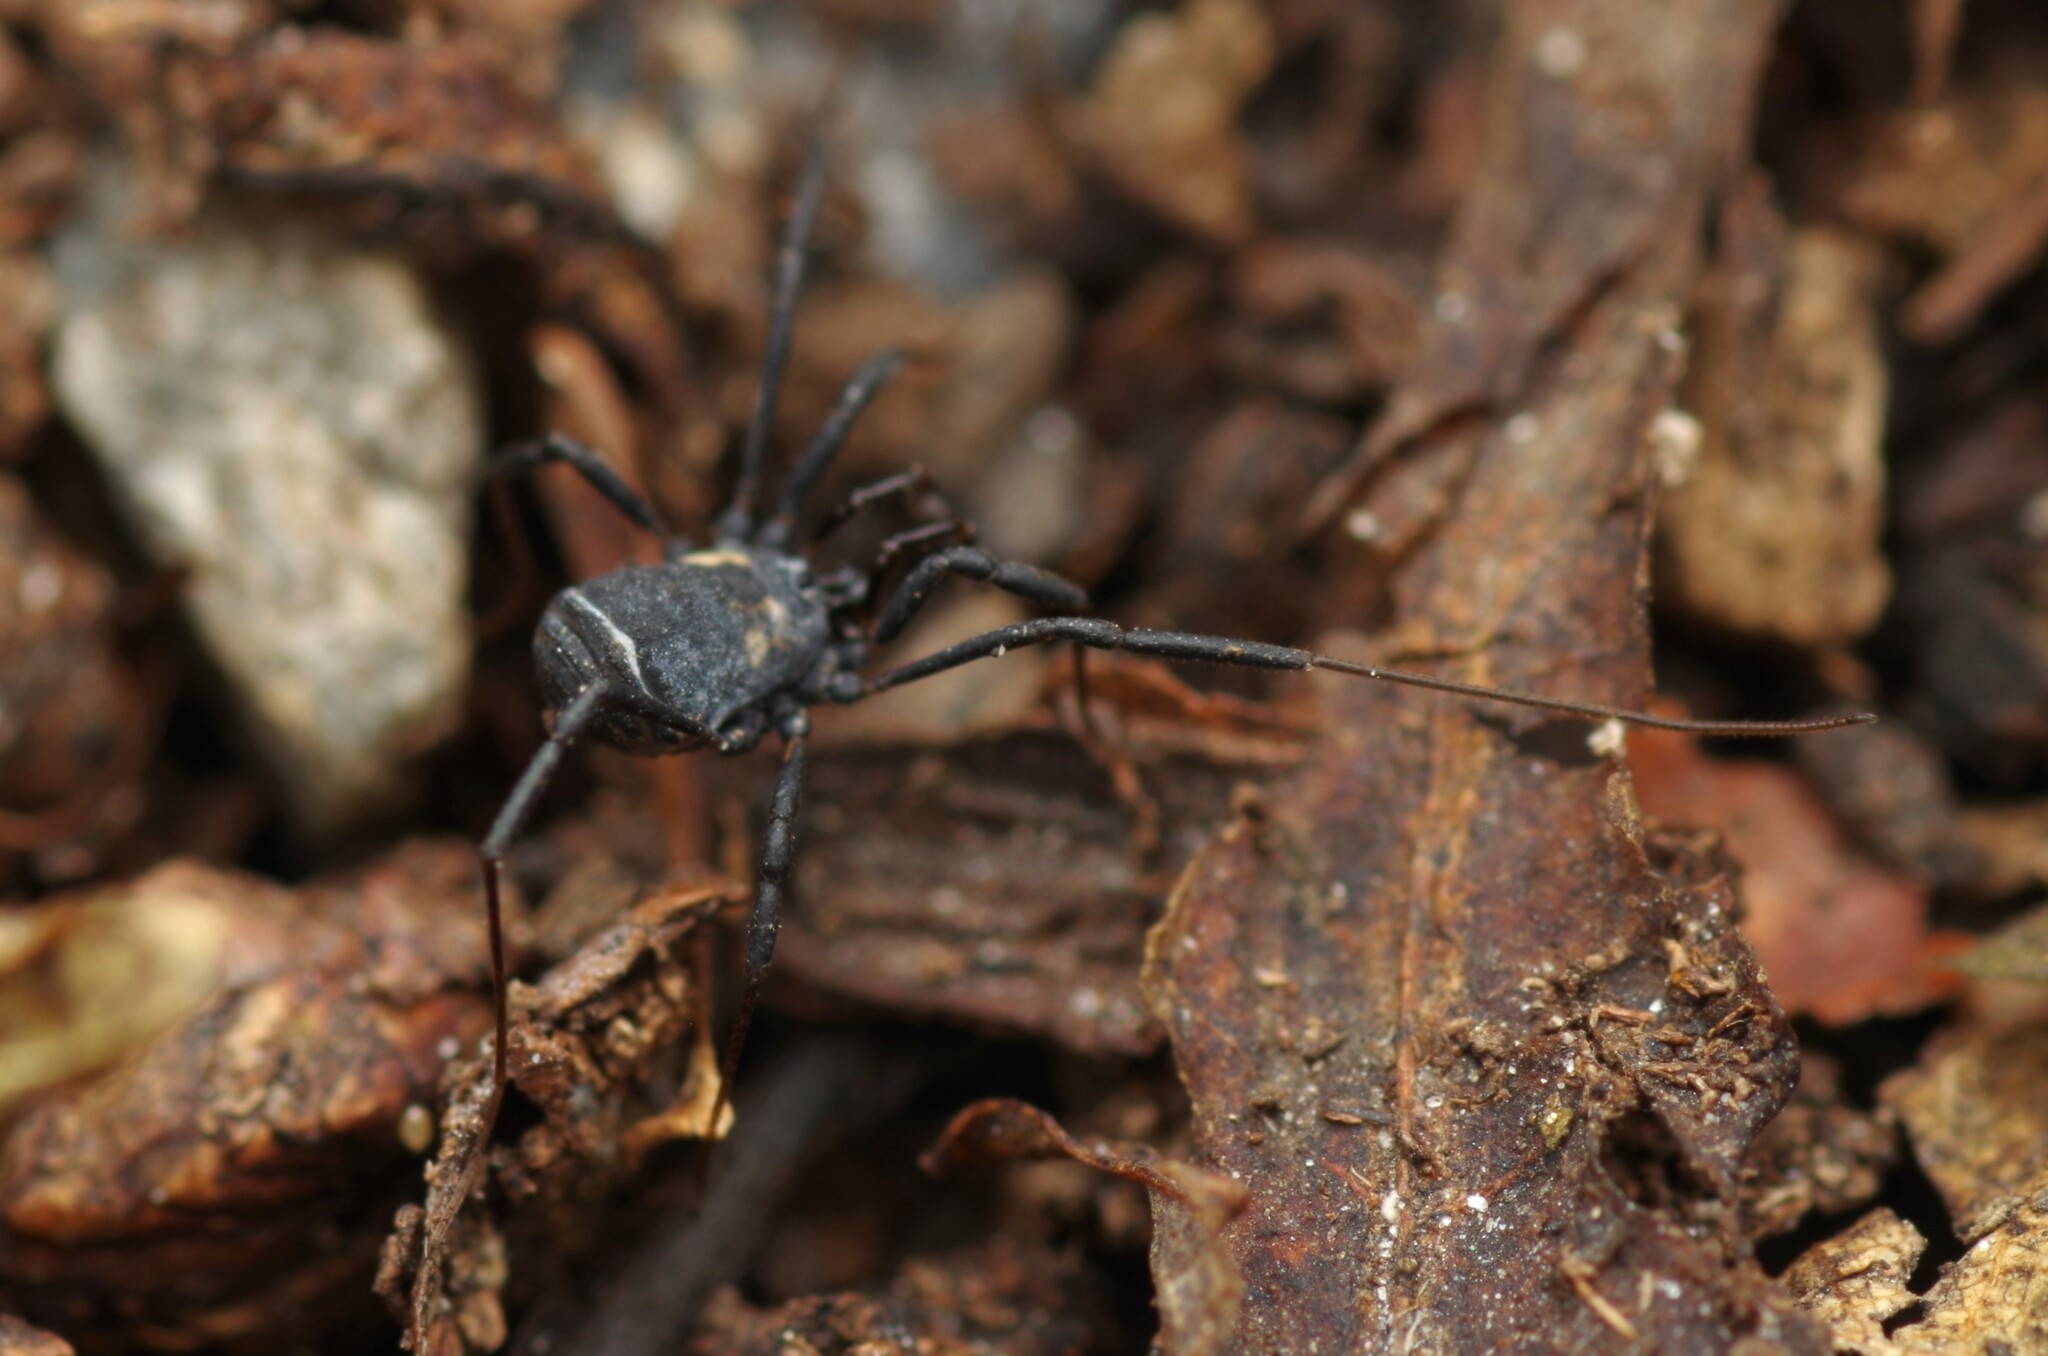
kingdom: Animalia
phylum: Arthropoda
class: Arachnida
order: Opiliones
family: Nemastomatidae
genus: Nemastoma
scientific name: Nemastoma bimaculatum
